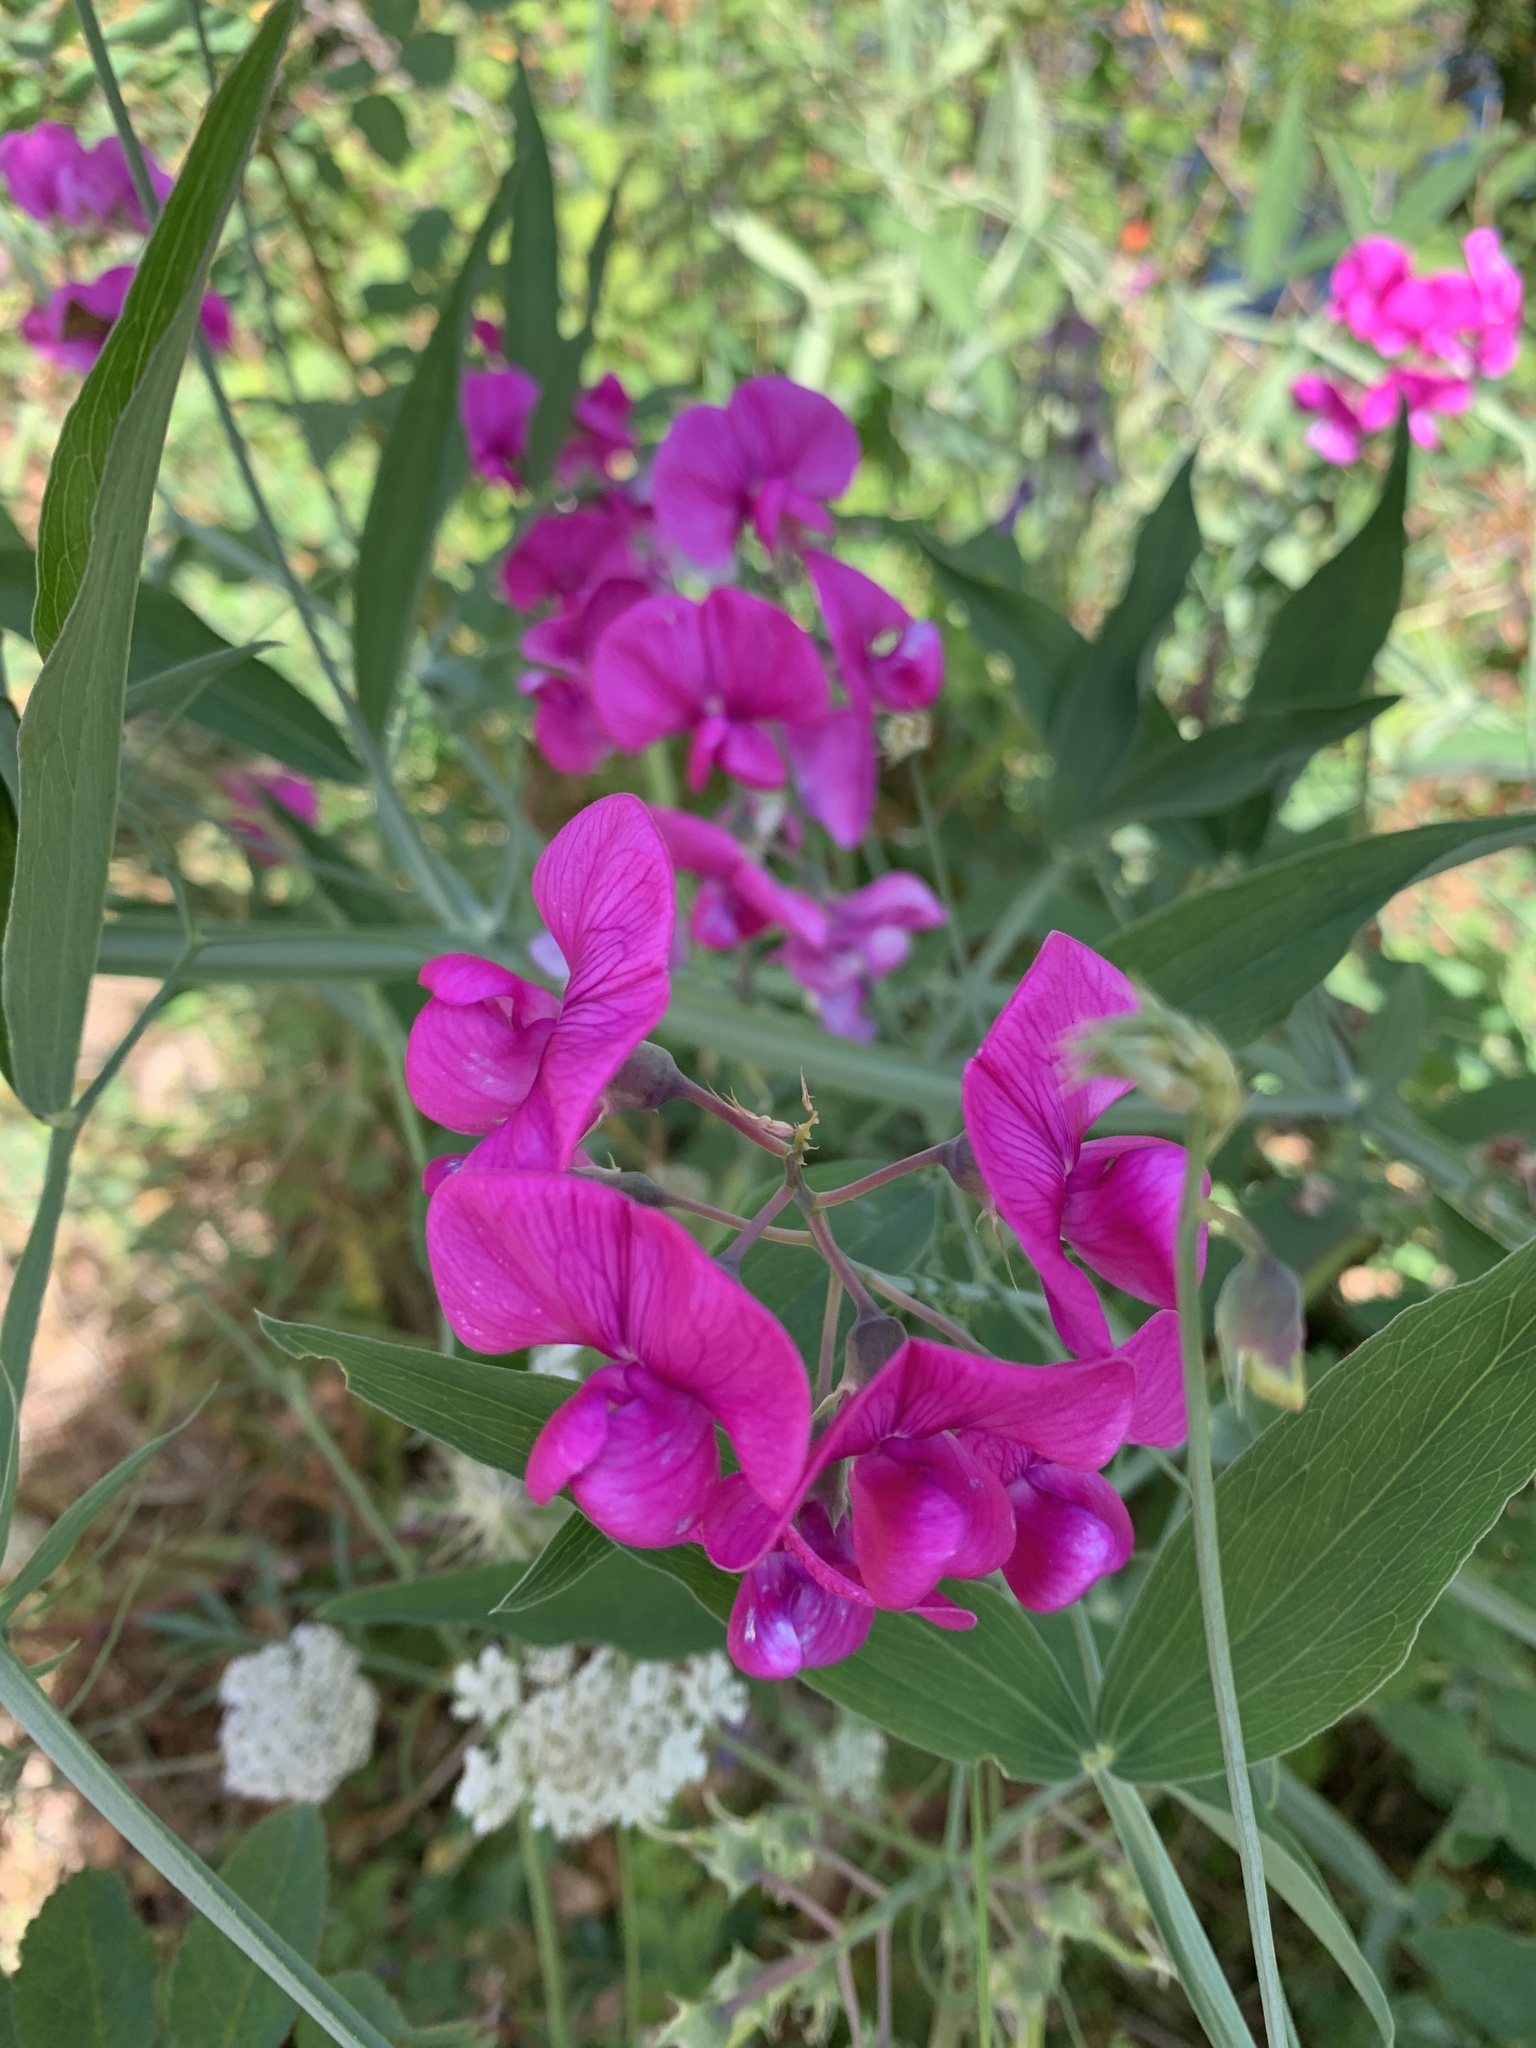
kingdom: Plantae
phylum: Tracheophyta
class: Magnoliopsida
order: Fabales
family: Fabaceae
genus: Lathyrus
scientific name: Lathyrus latifolius
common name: Perennial pea
